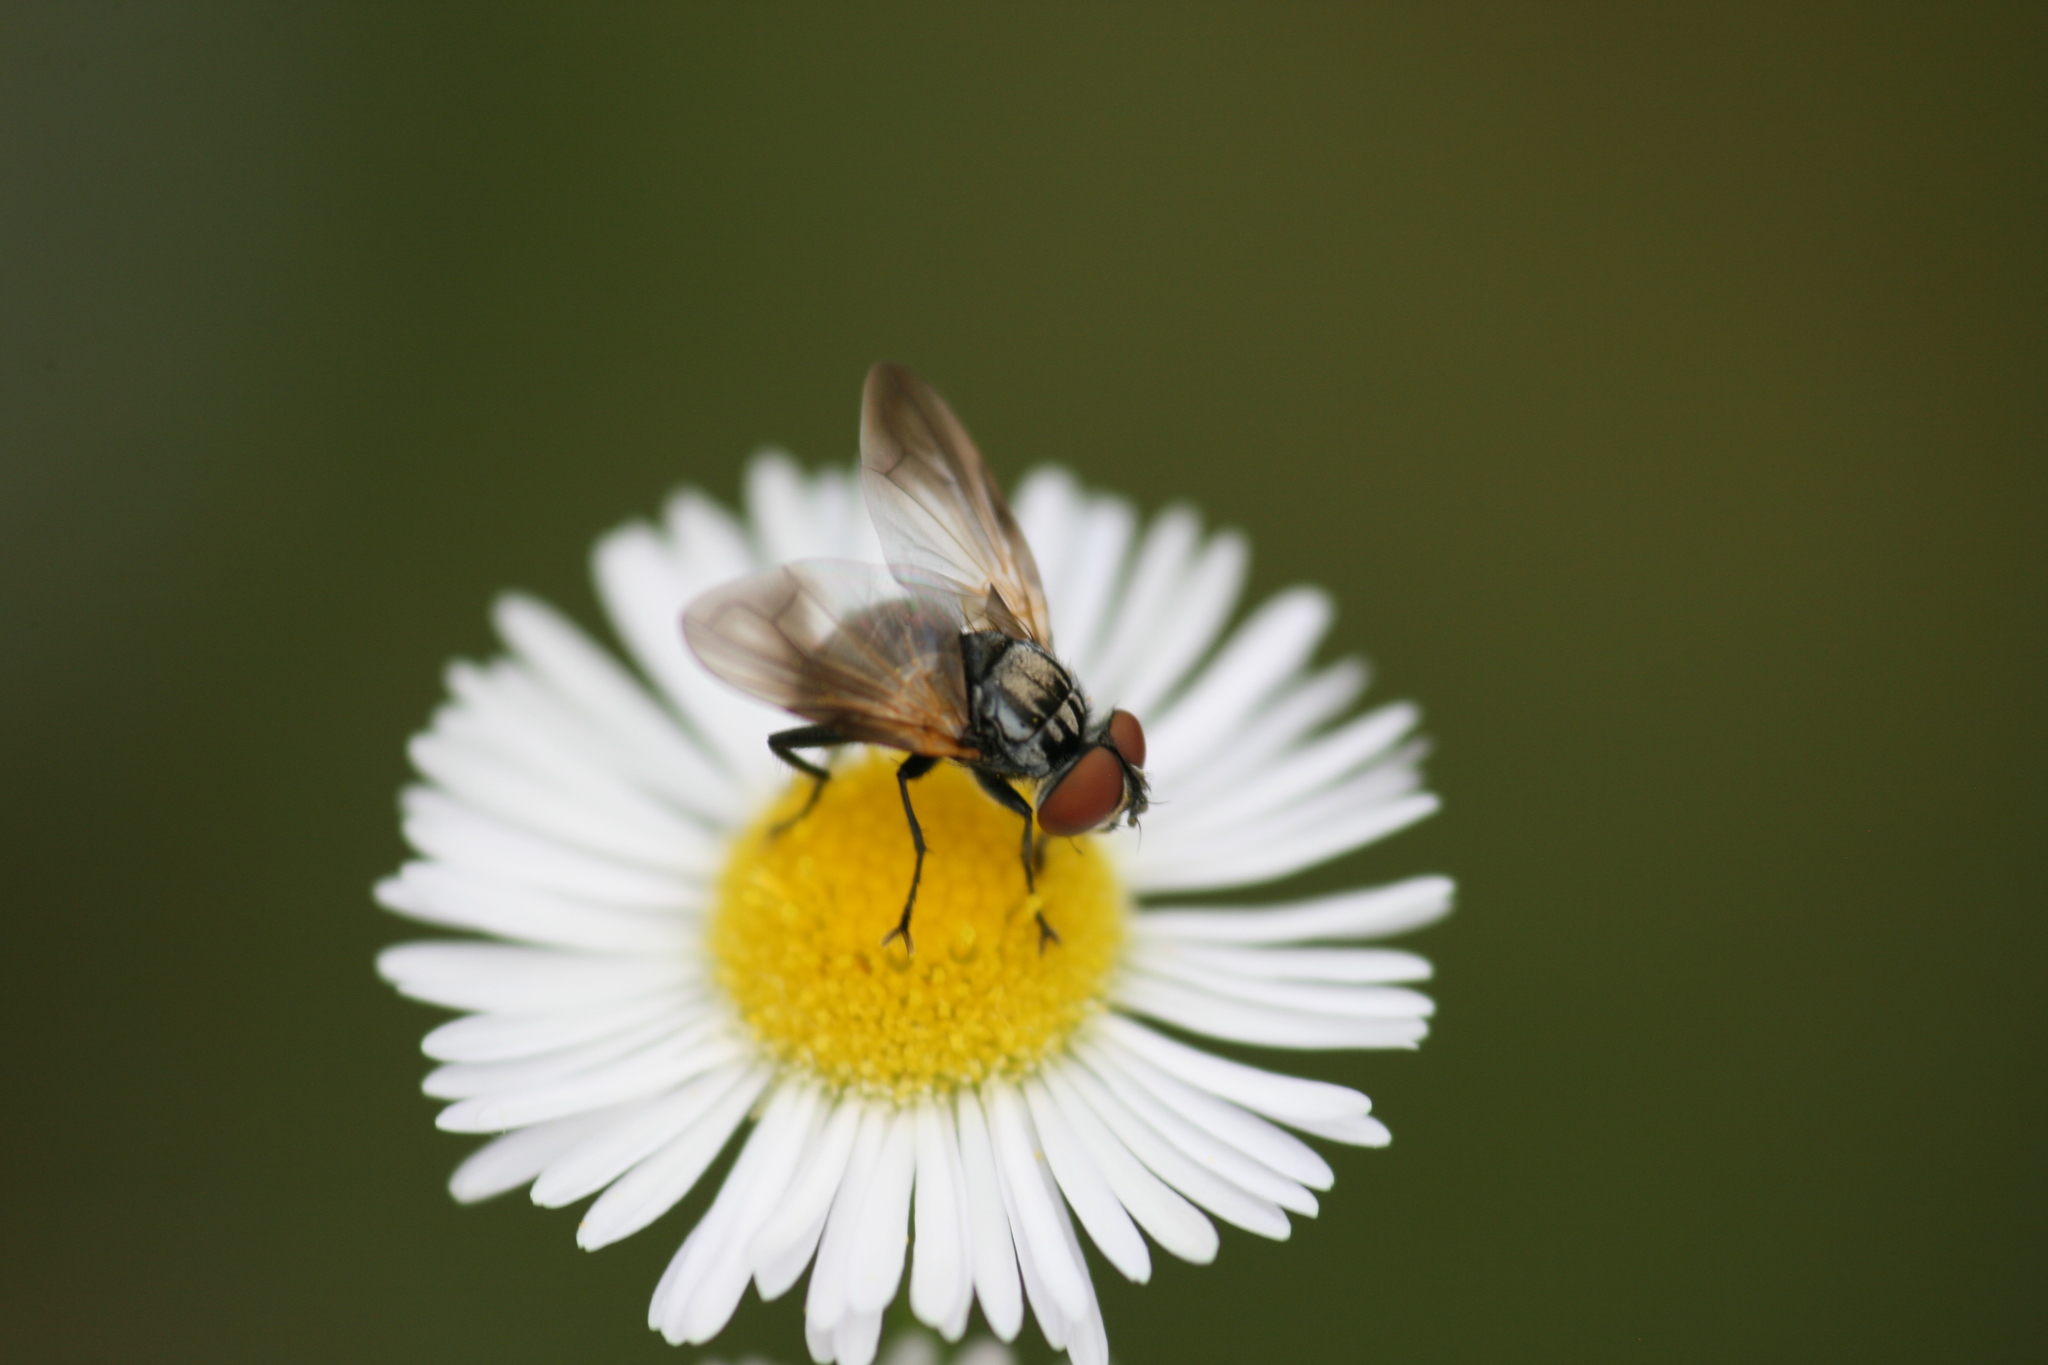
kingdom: Animalia
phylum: Arthropoda
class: Insecta
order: Diptera
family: Tachinidae
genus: Phasia
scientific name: Phasia obesa
